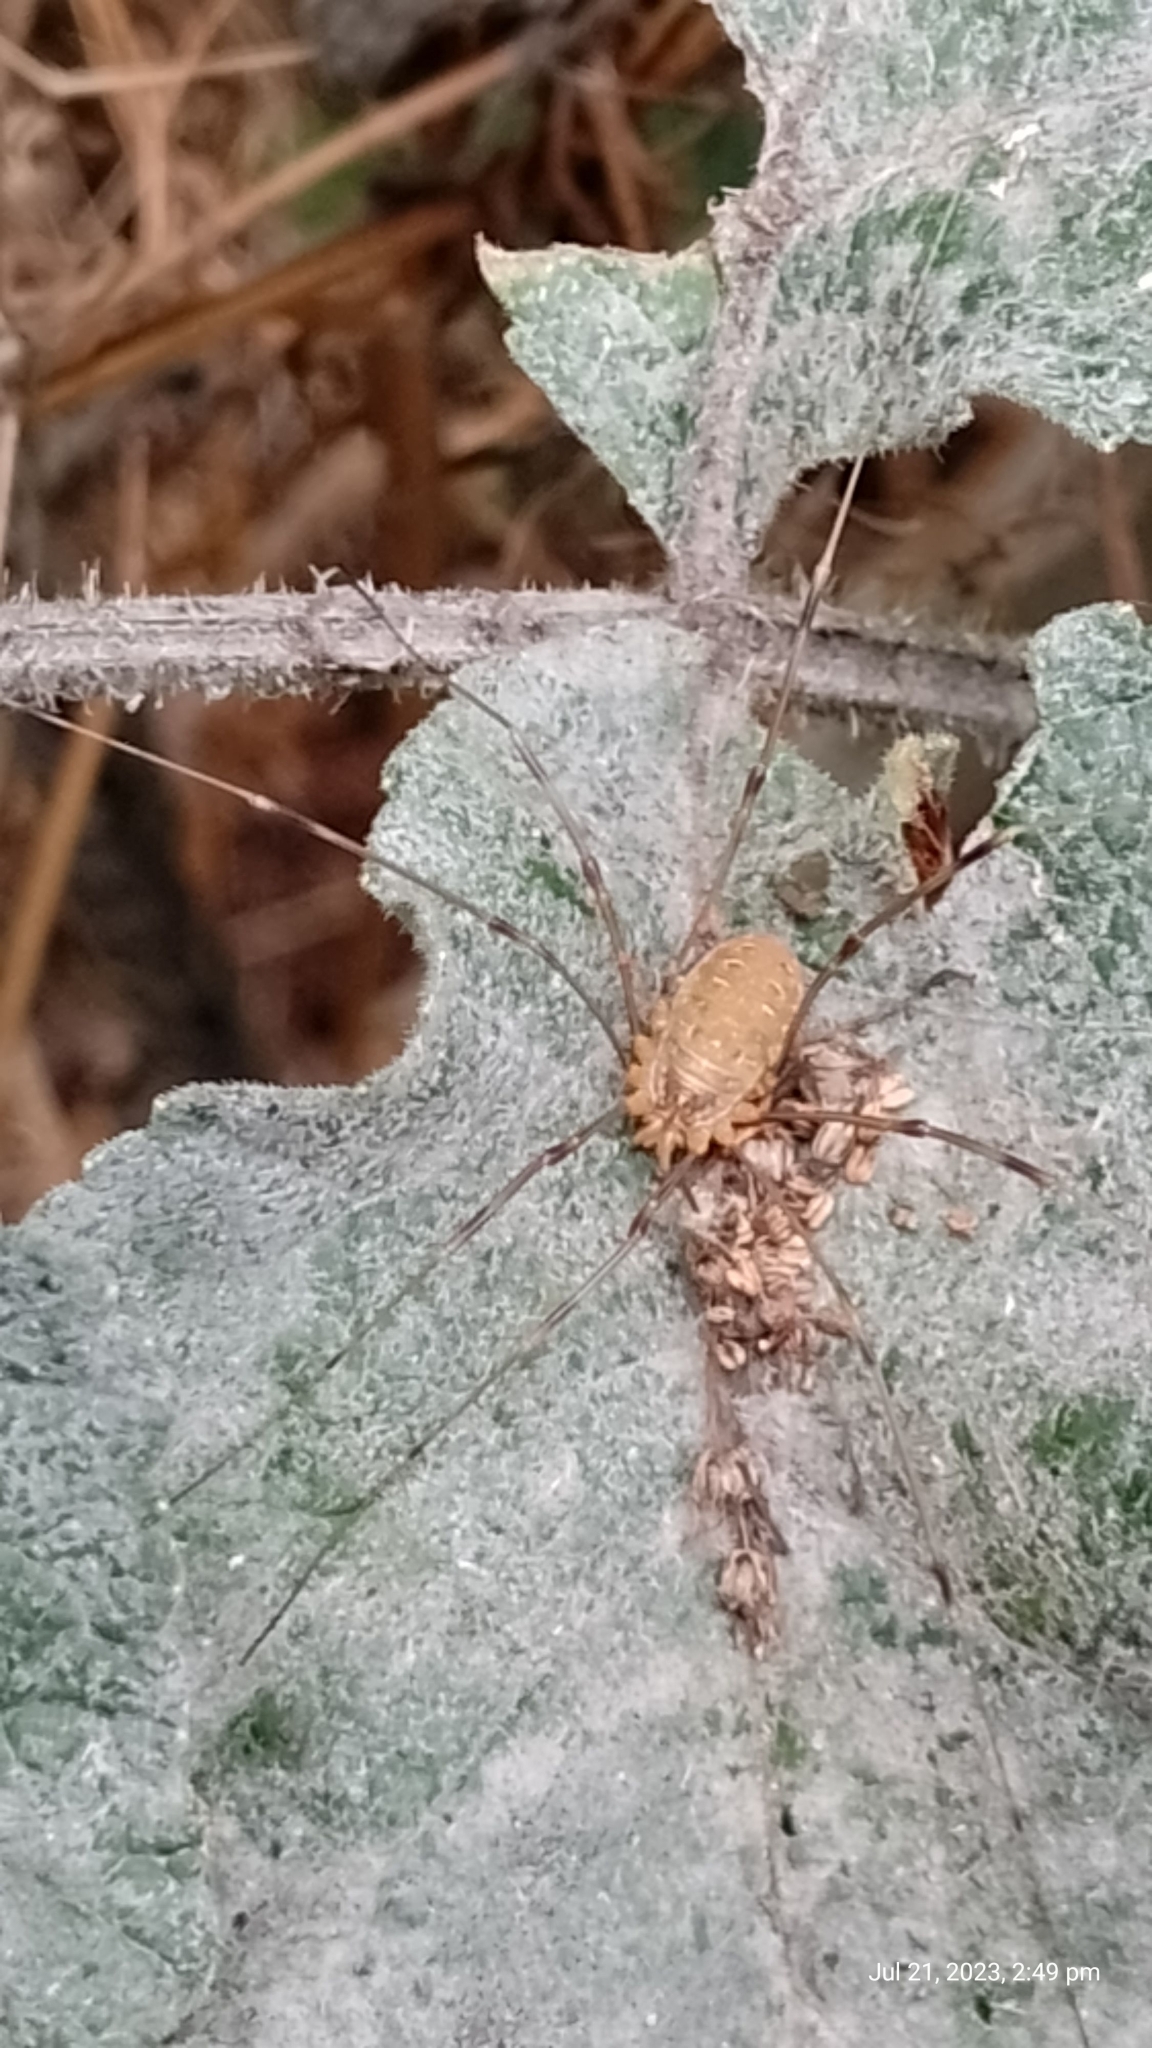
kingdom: Animalia
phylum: Arthropoda
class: Arachnida
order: Opiliones
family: Phalangiidae
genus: Opilio
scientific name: Opilio canestrinii
